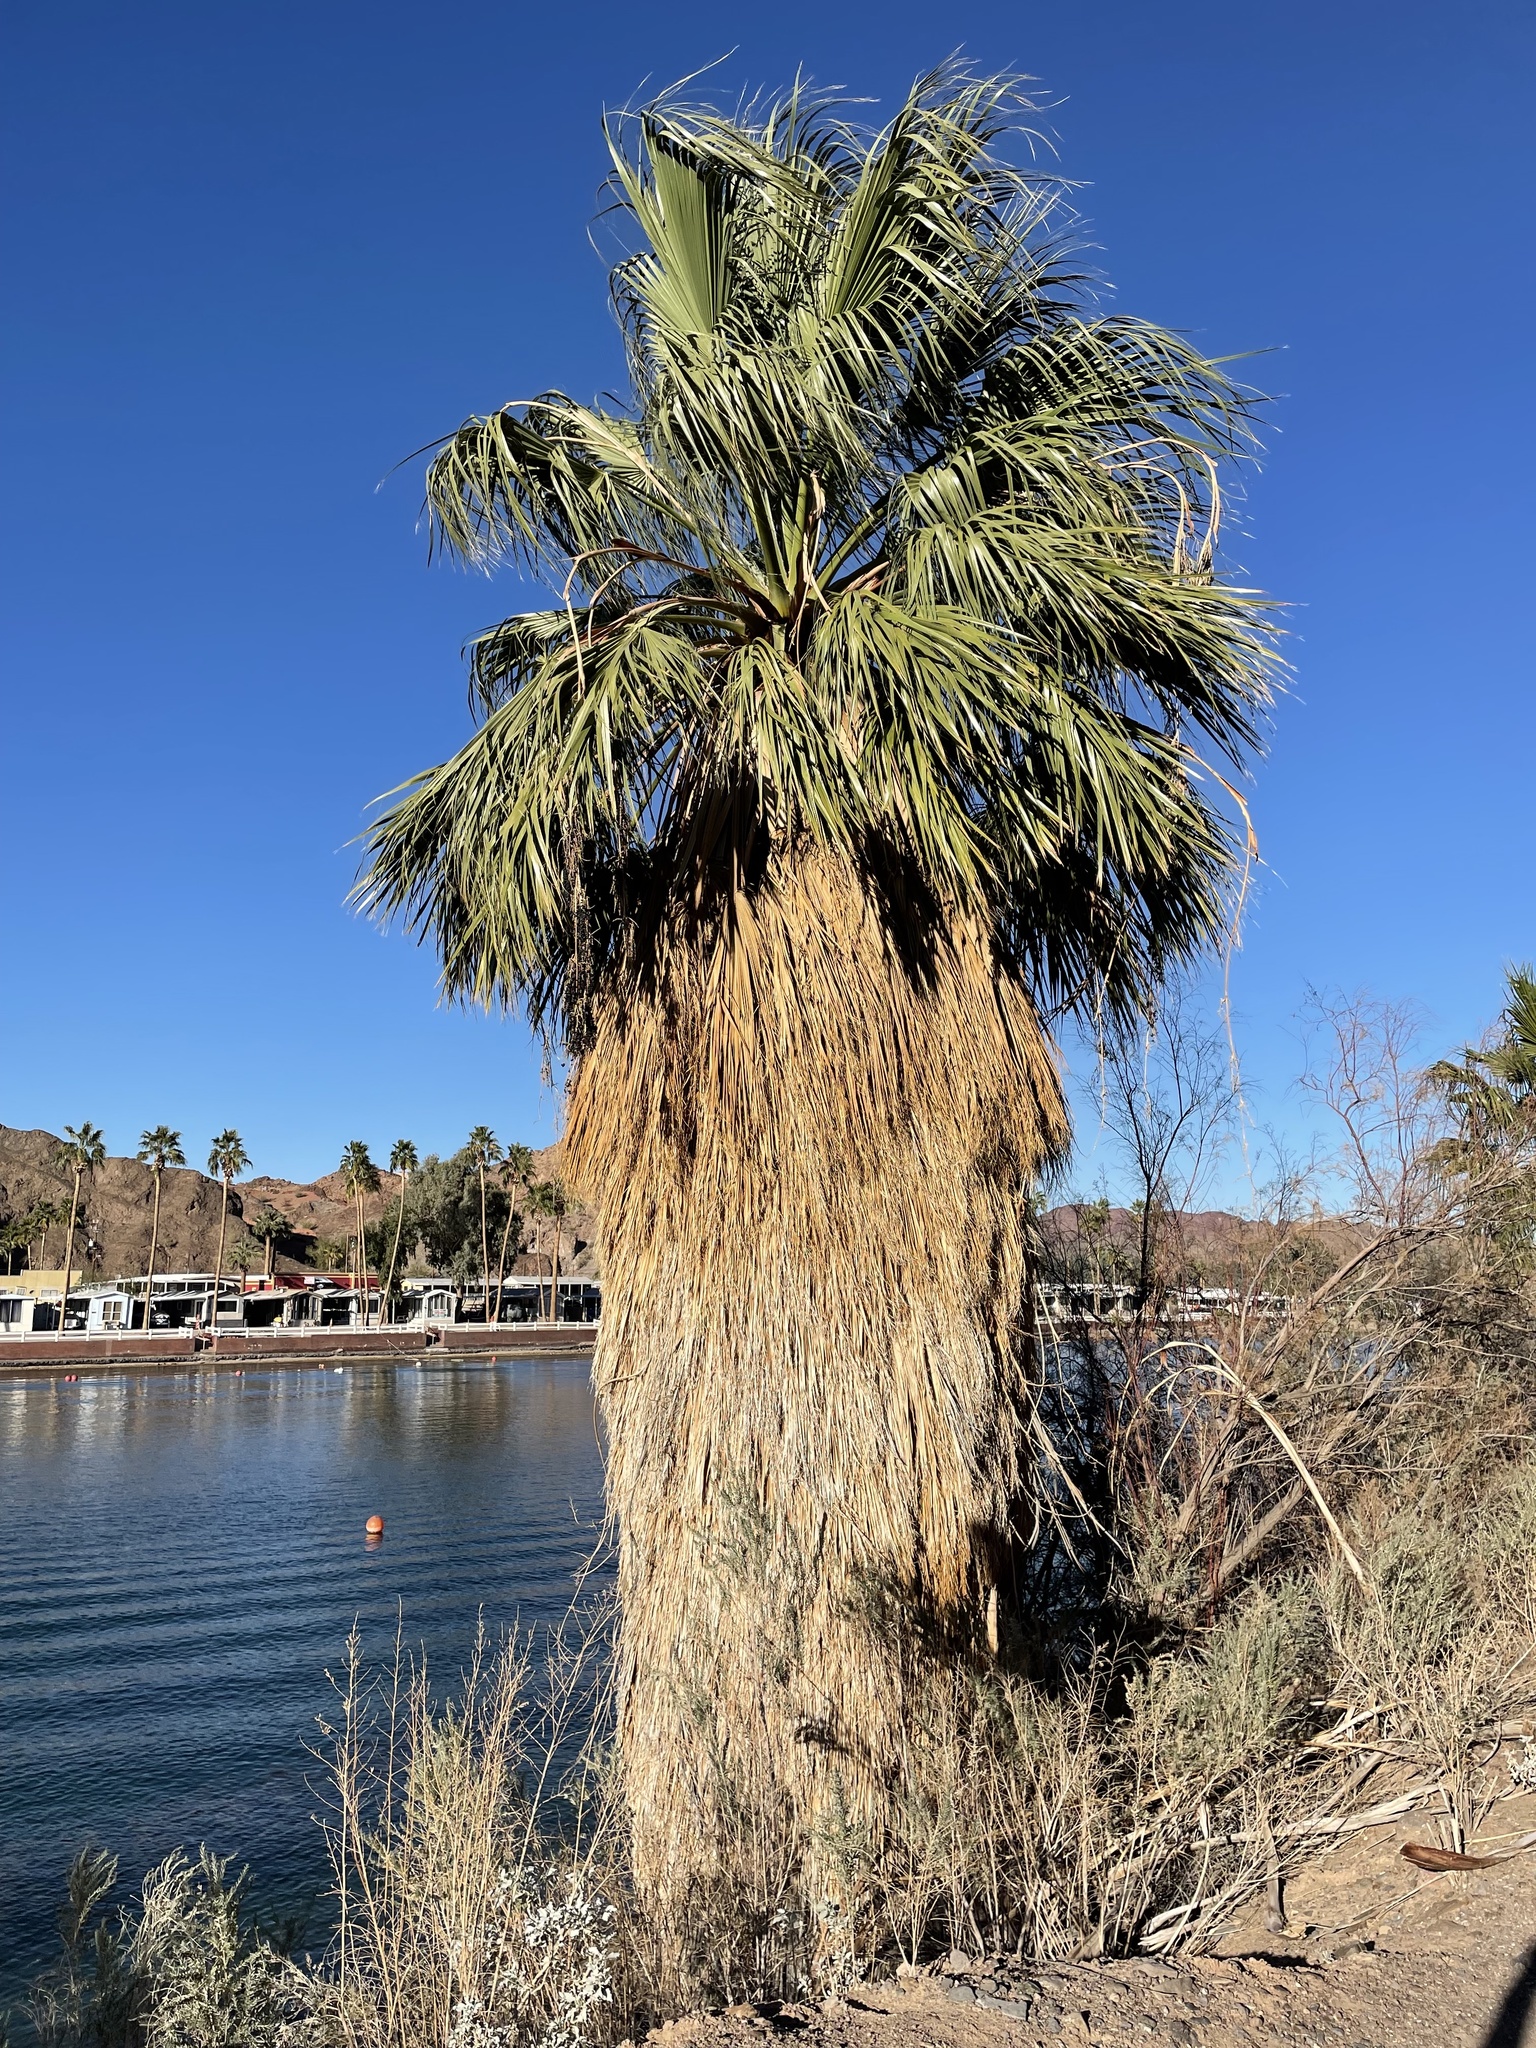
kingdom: Plantae
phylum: Tracheophyta
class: Liliopsida
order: Arecales
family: Arecaceae
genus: Washingtonia
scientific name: Washingtonia filifera
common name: California fan palm
